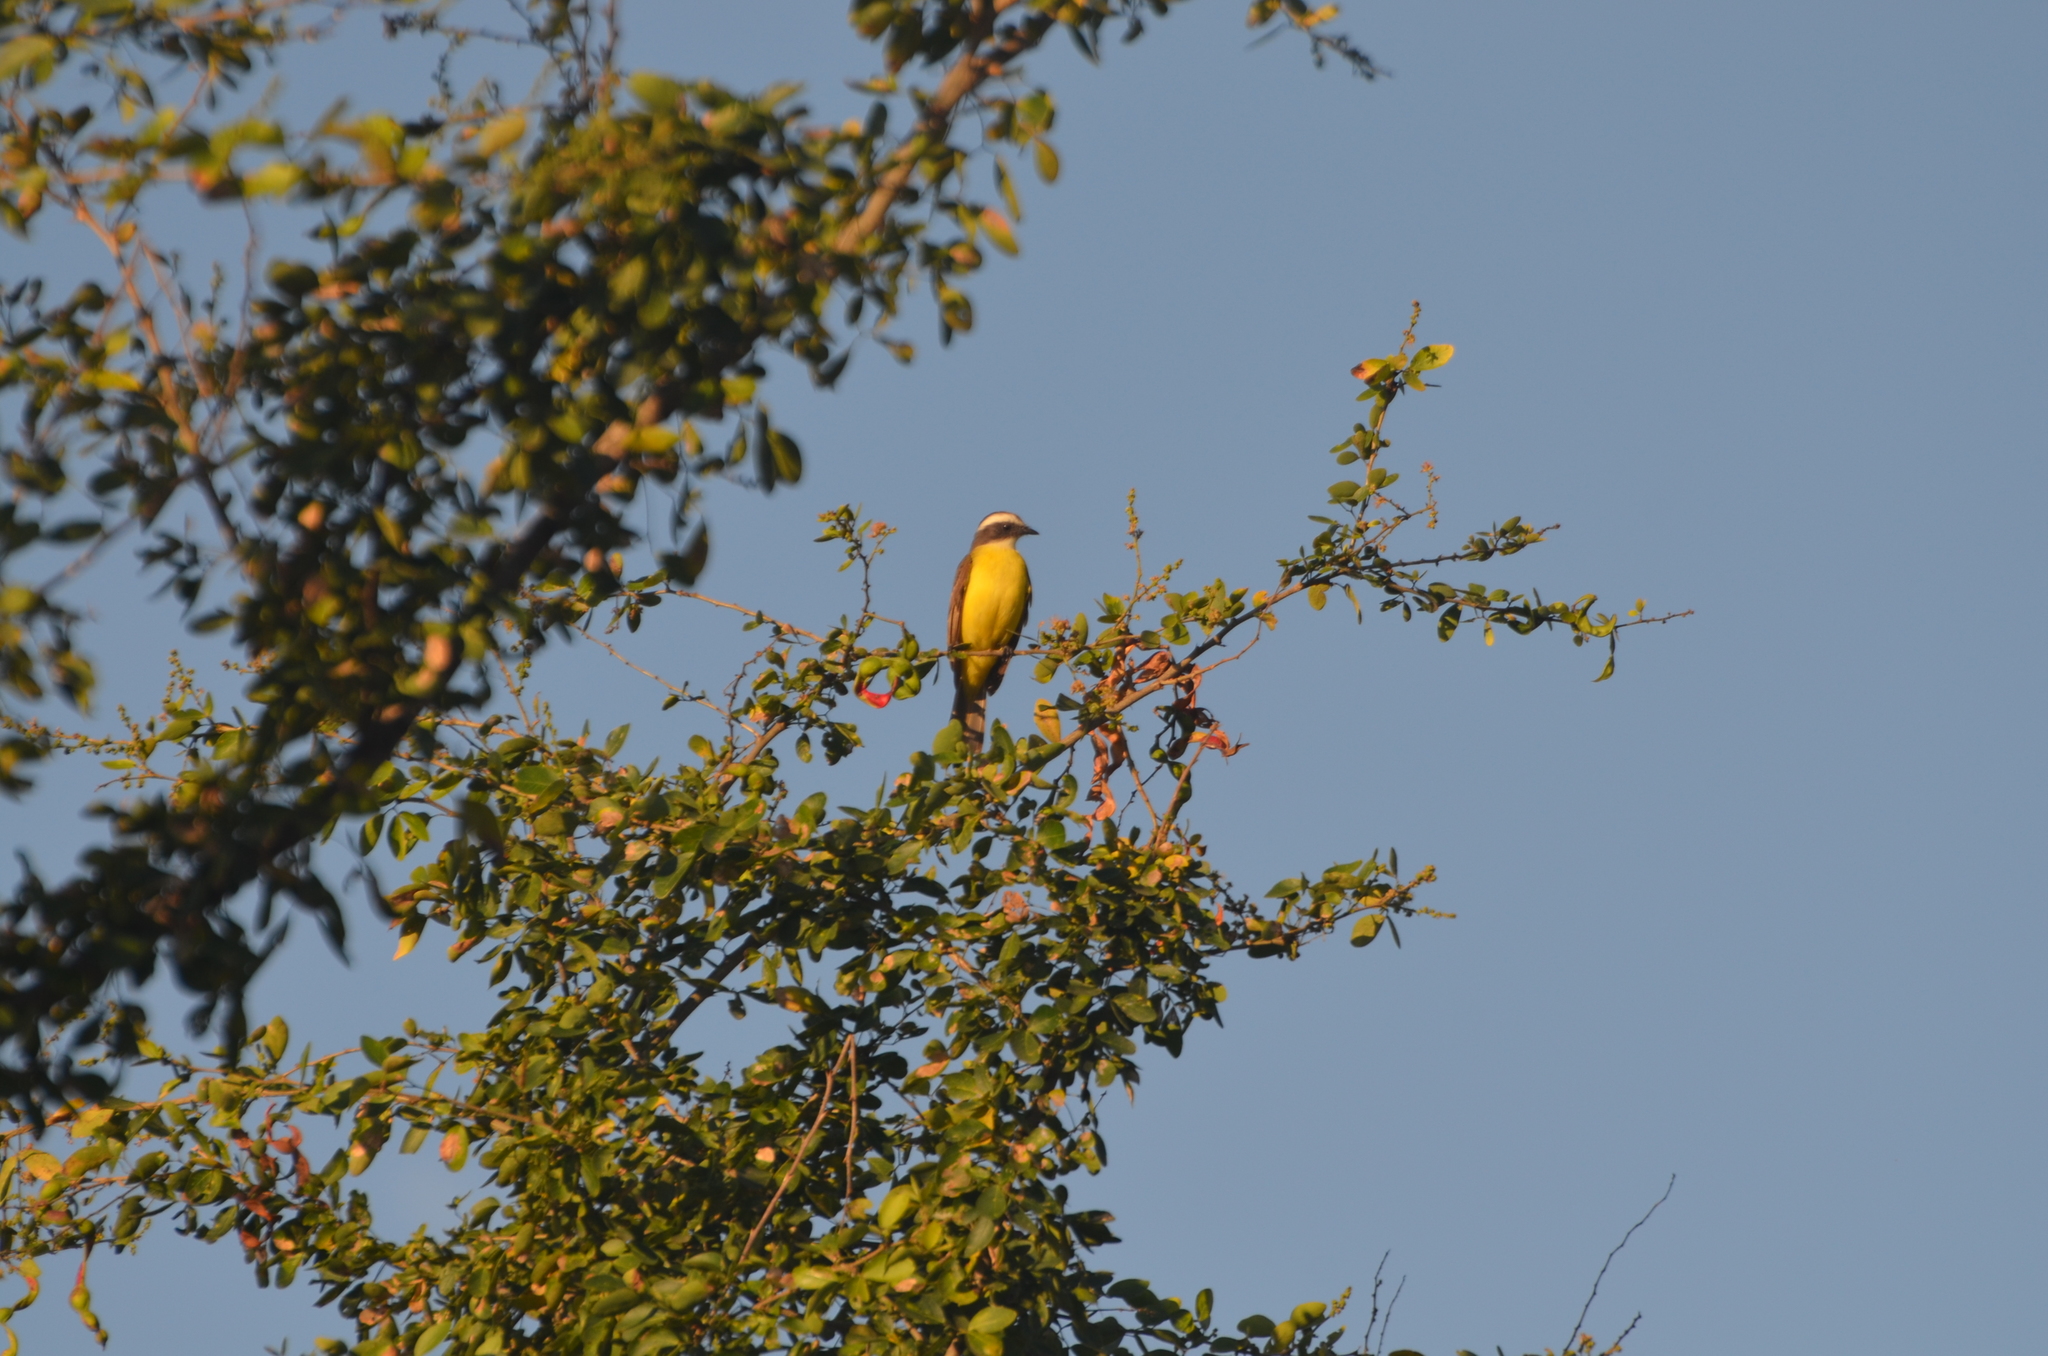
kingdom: Animalia
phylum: Chordata
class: Aves
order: Passeriformes
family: Tyrannidae
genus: Myiozetetes
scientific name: Myiozetetes similis
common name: Social flycatcher
